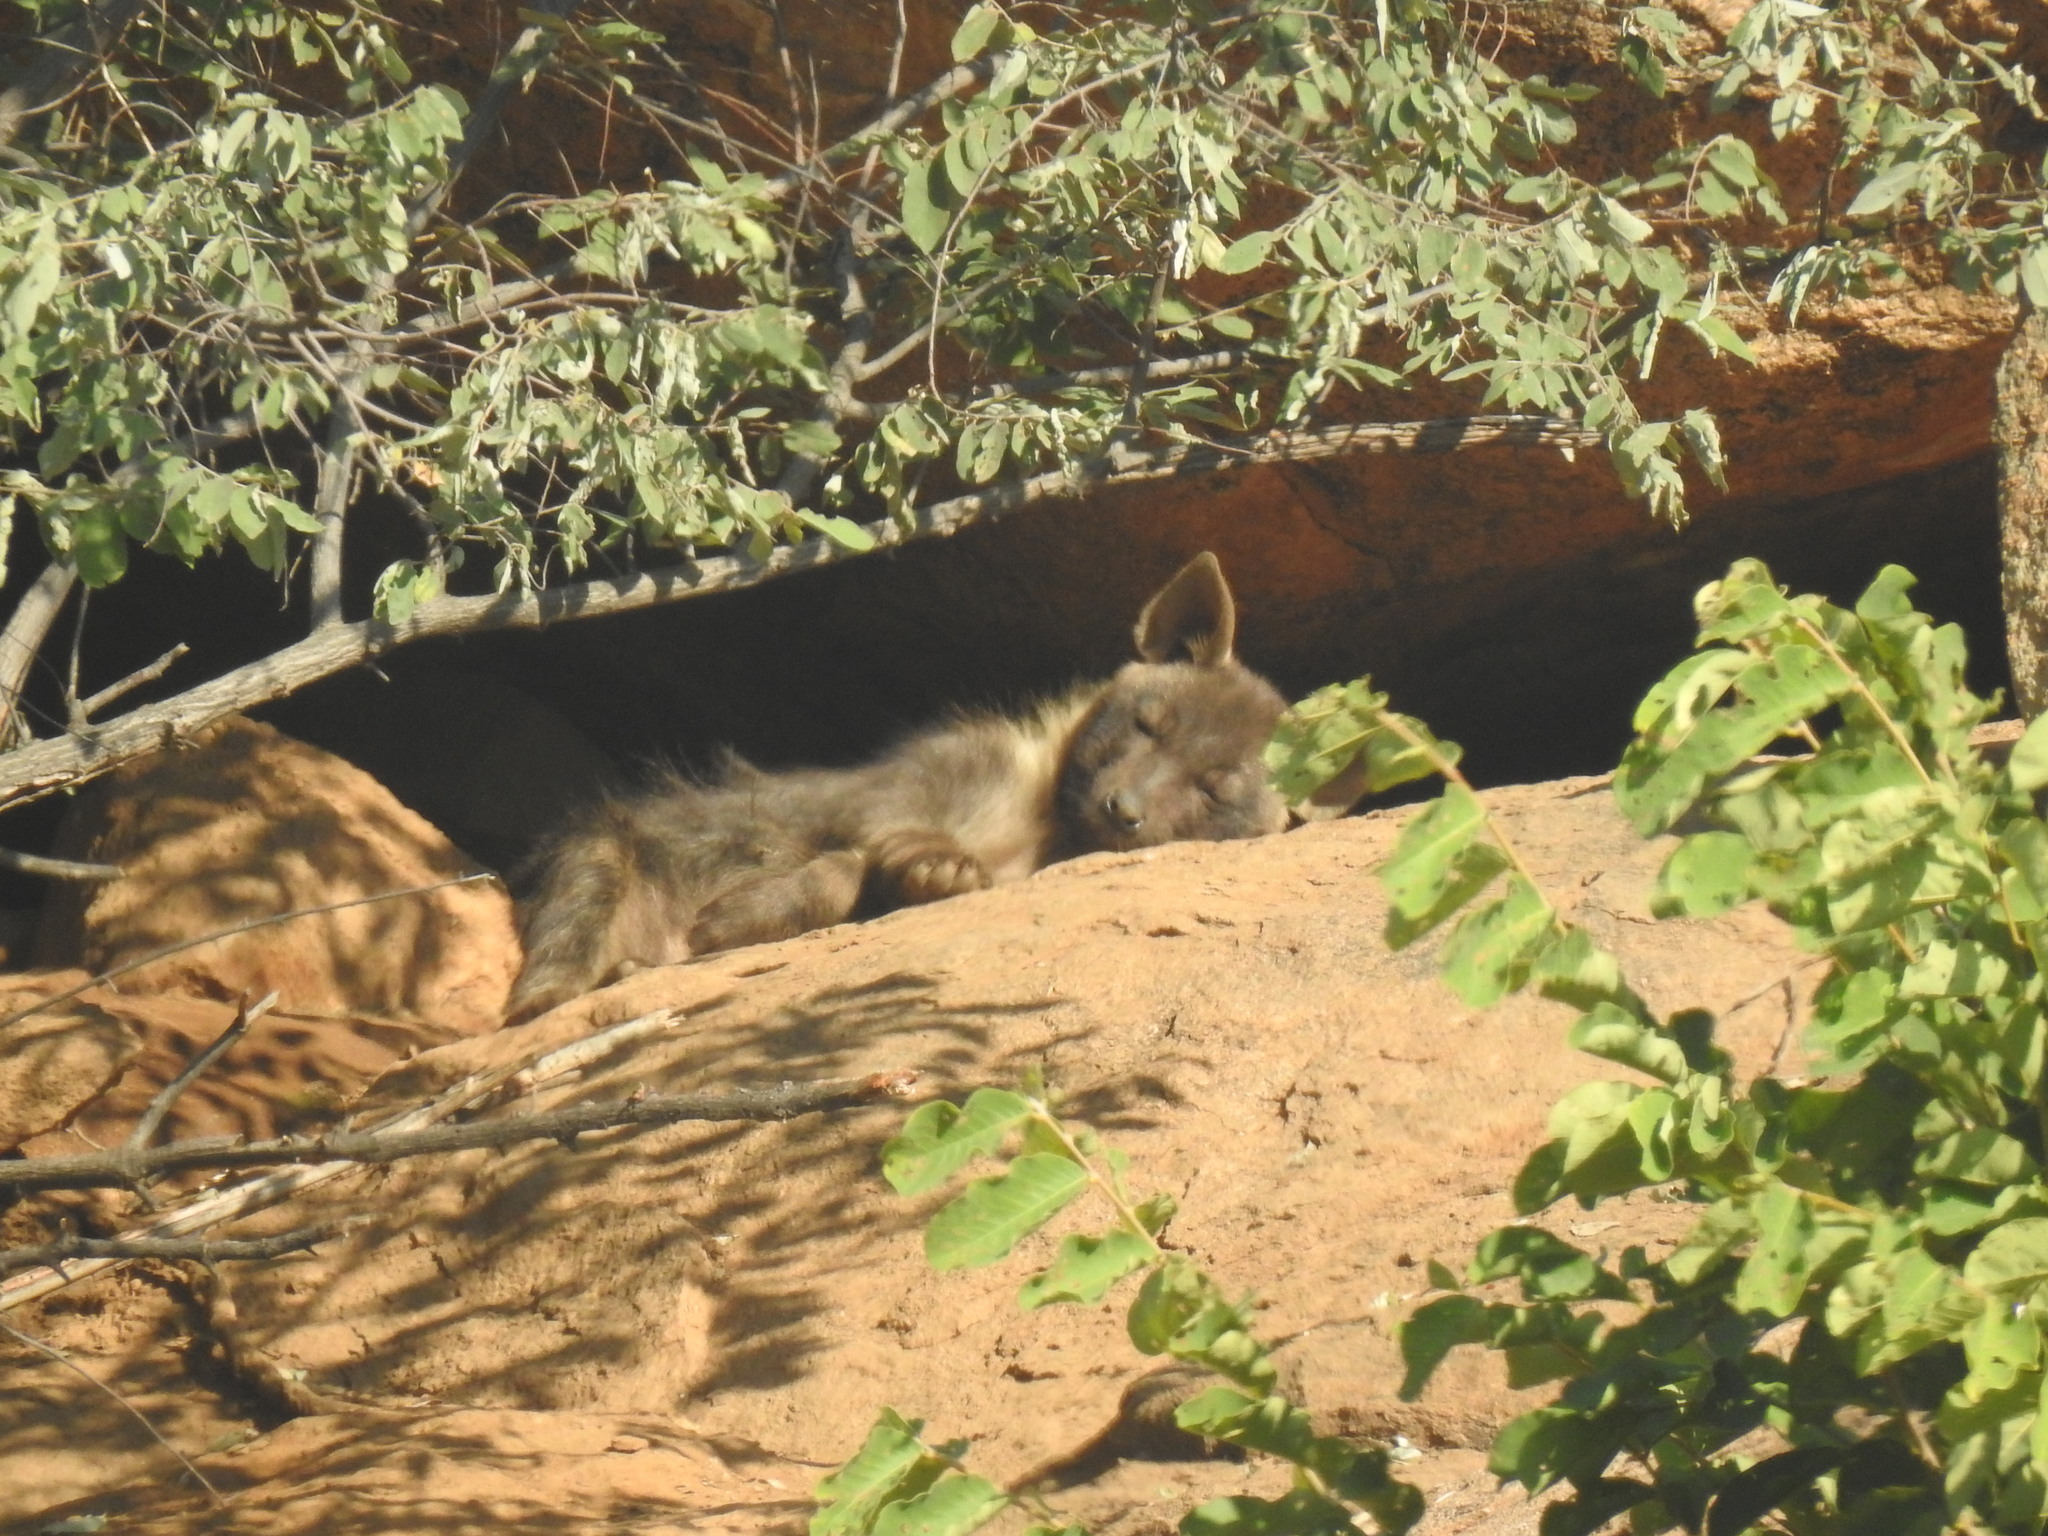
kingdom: Animalia
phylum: Chordata
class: Mammalia
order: Carnivora
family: Hyaenidae
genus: Hyaena
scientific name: Hyaena brunnea
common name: Brown hyena
